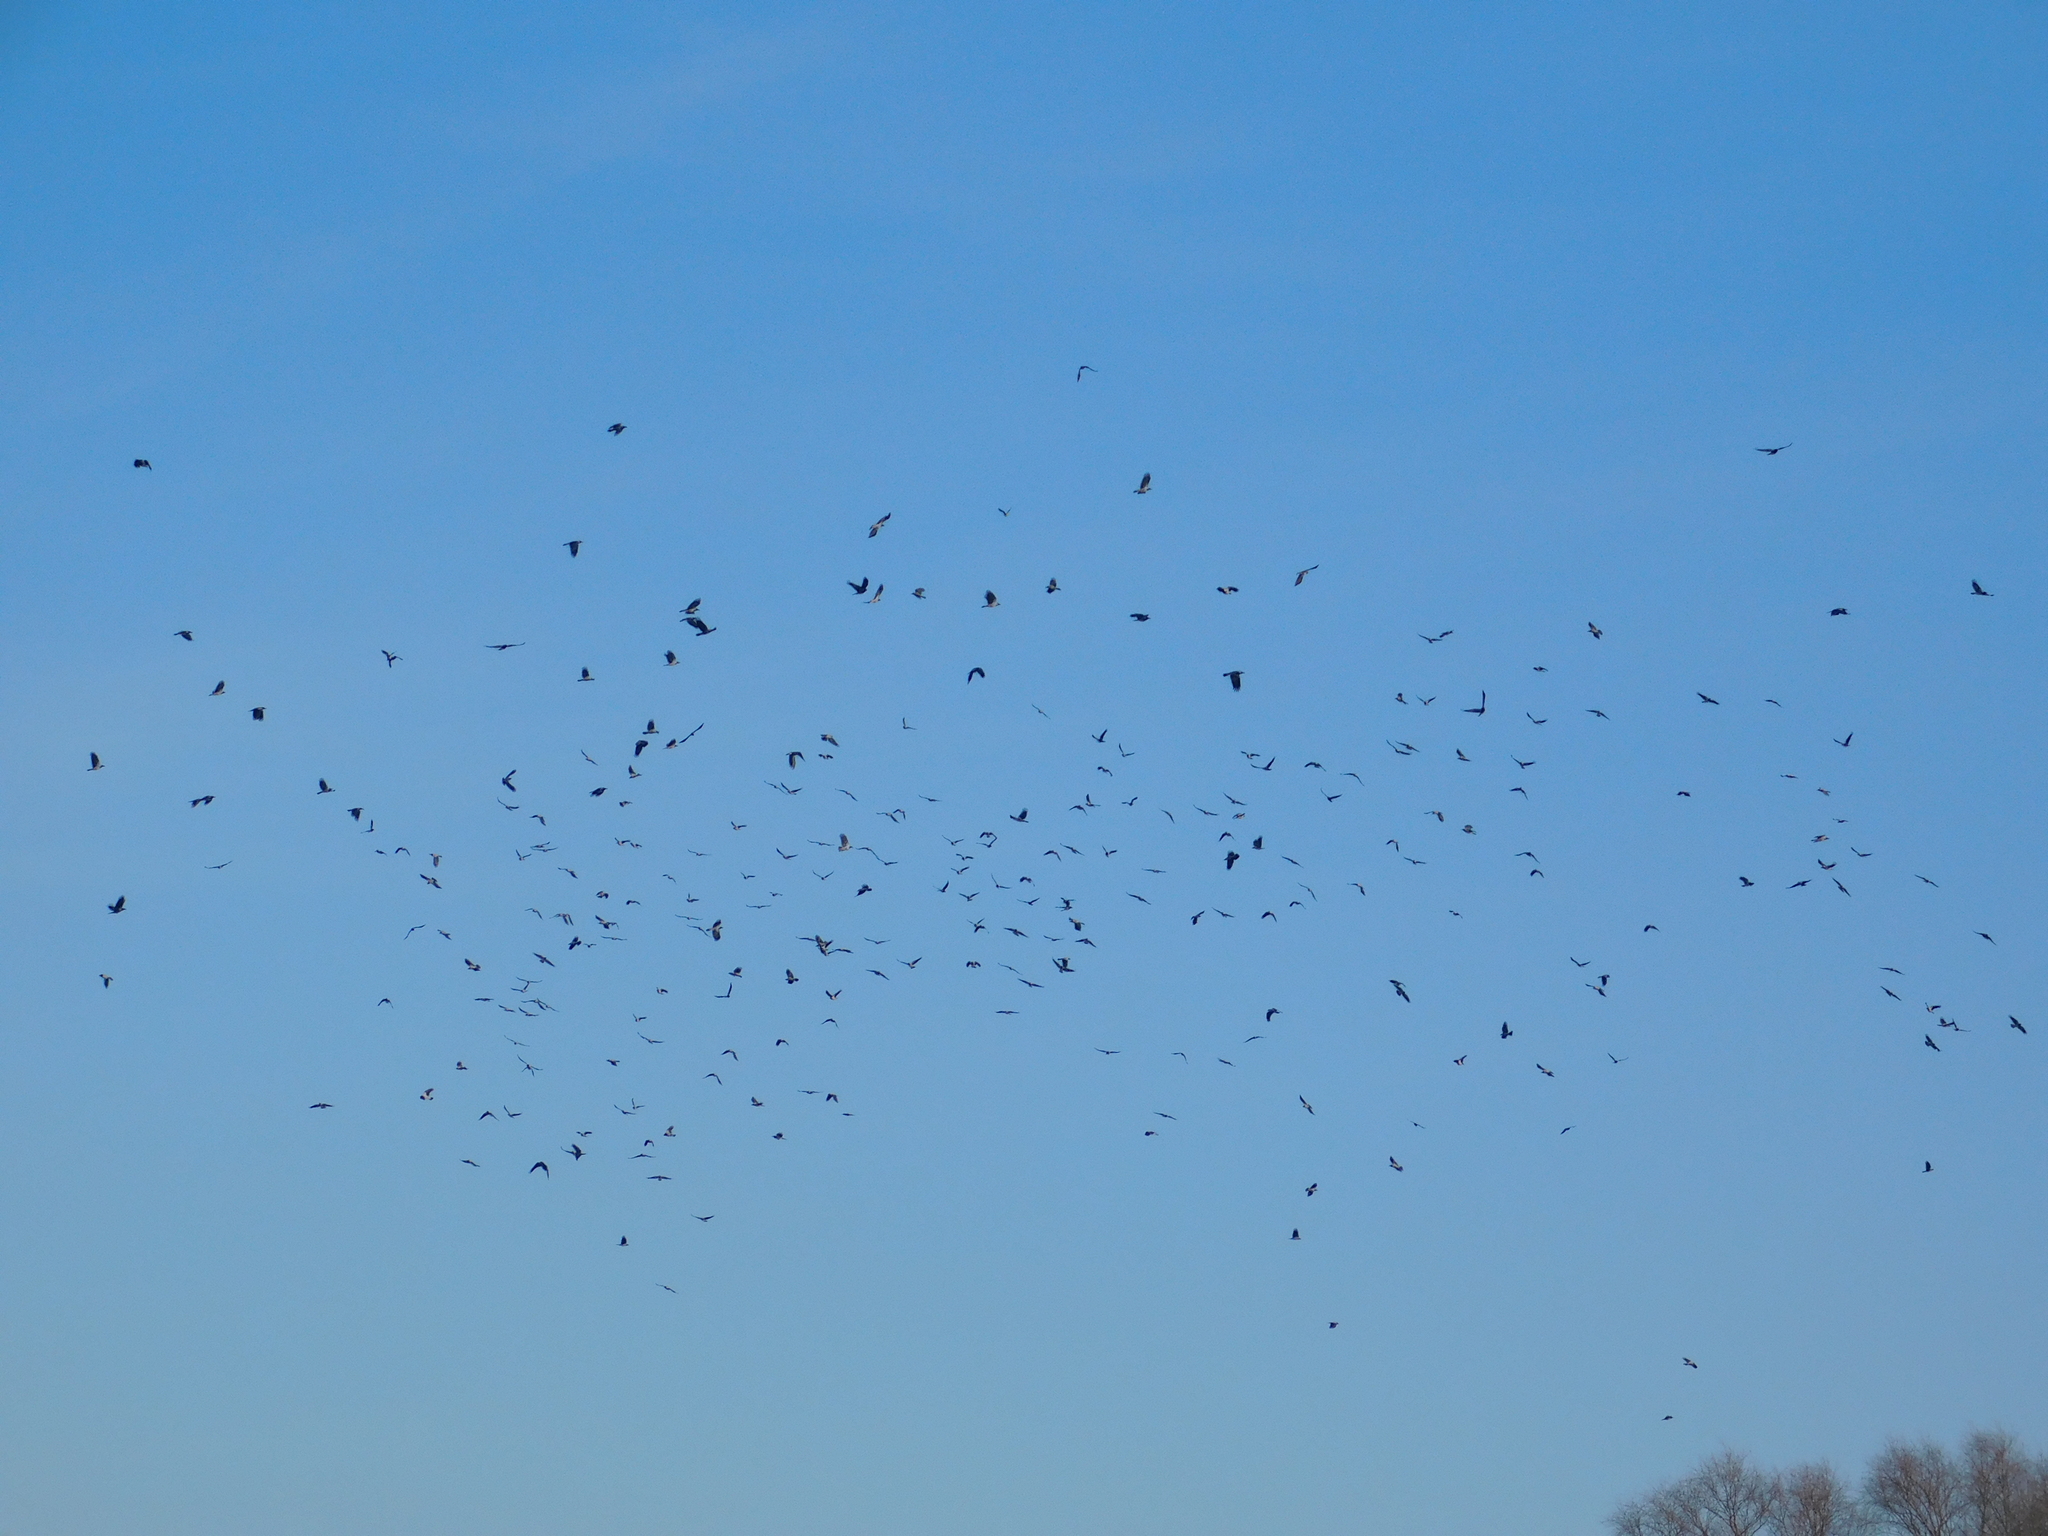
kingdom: Animalia
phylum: Chordata
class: Aves
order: Passeriformes
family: Corvidae
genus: Corvus
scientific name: Corvus cornix
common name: Hooded crow
